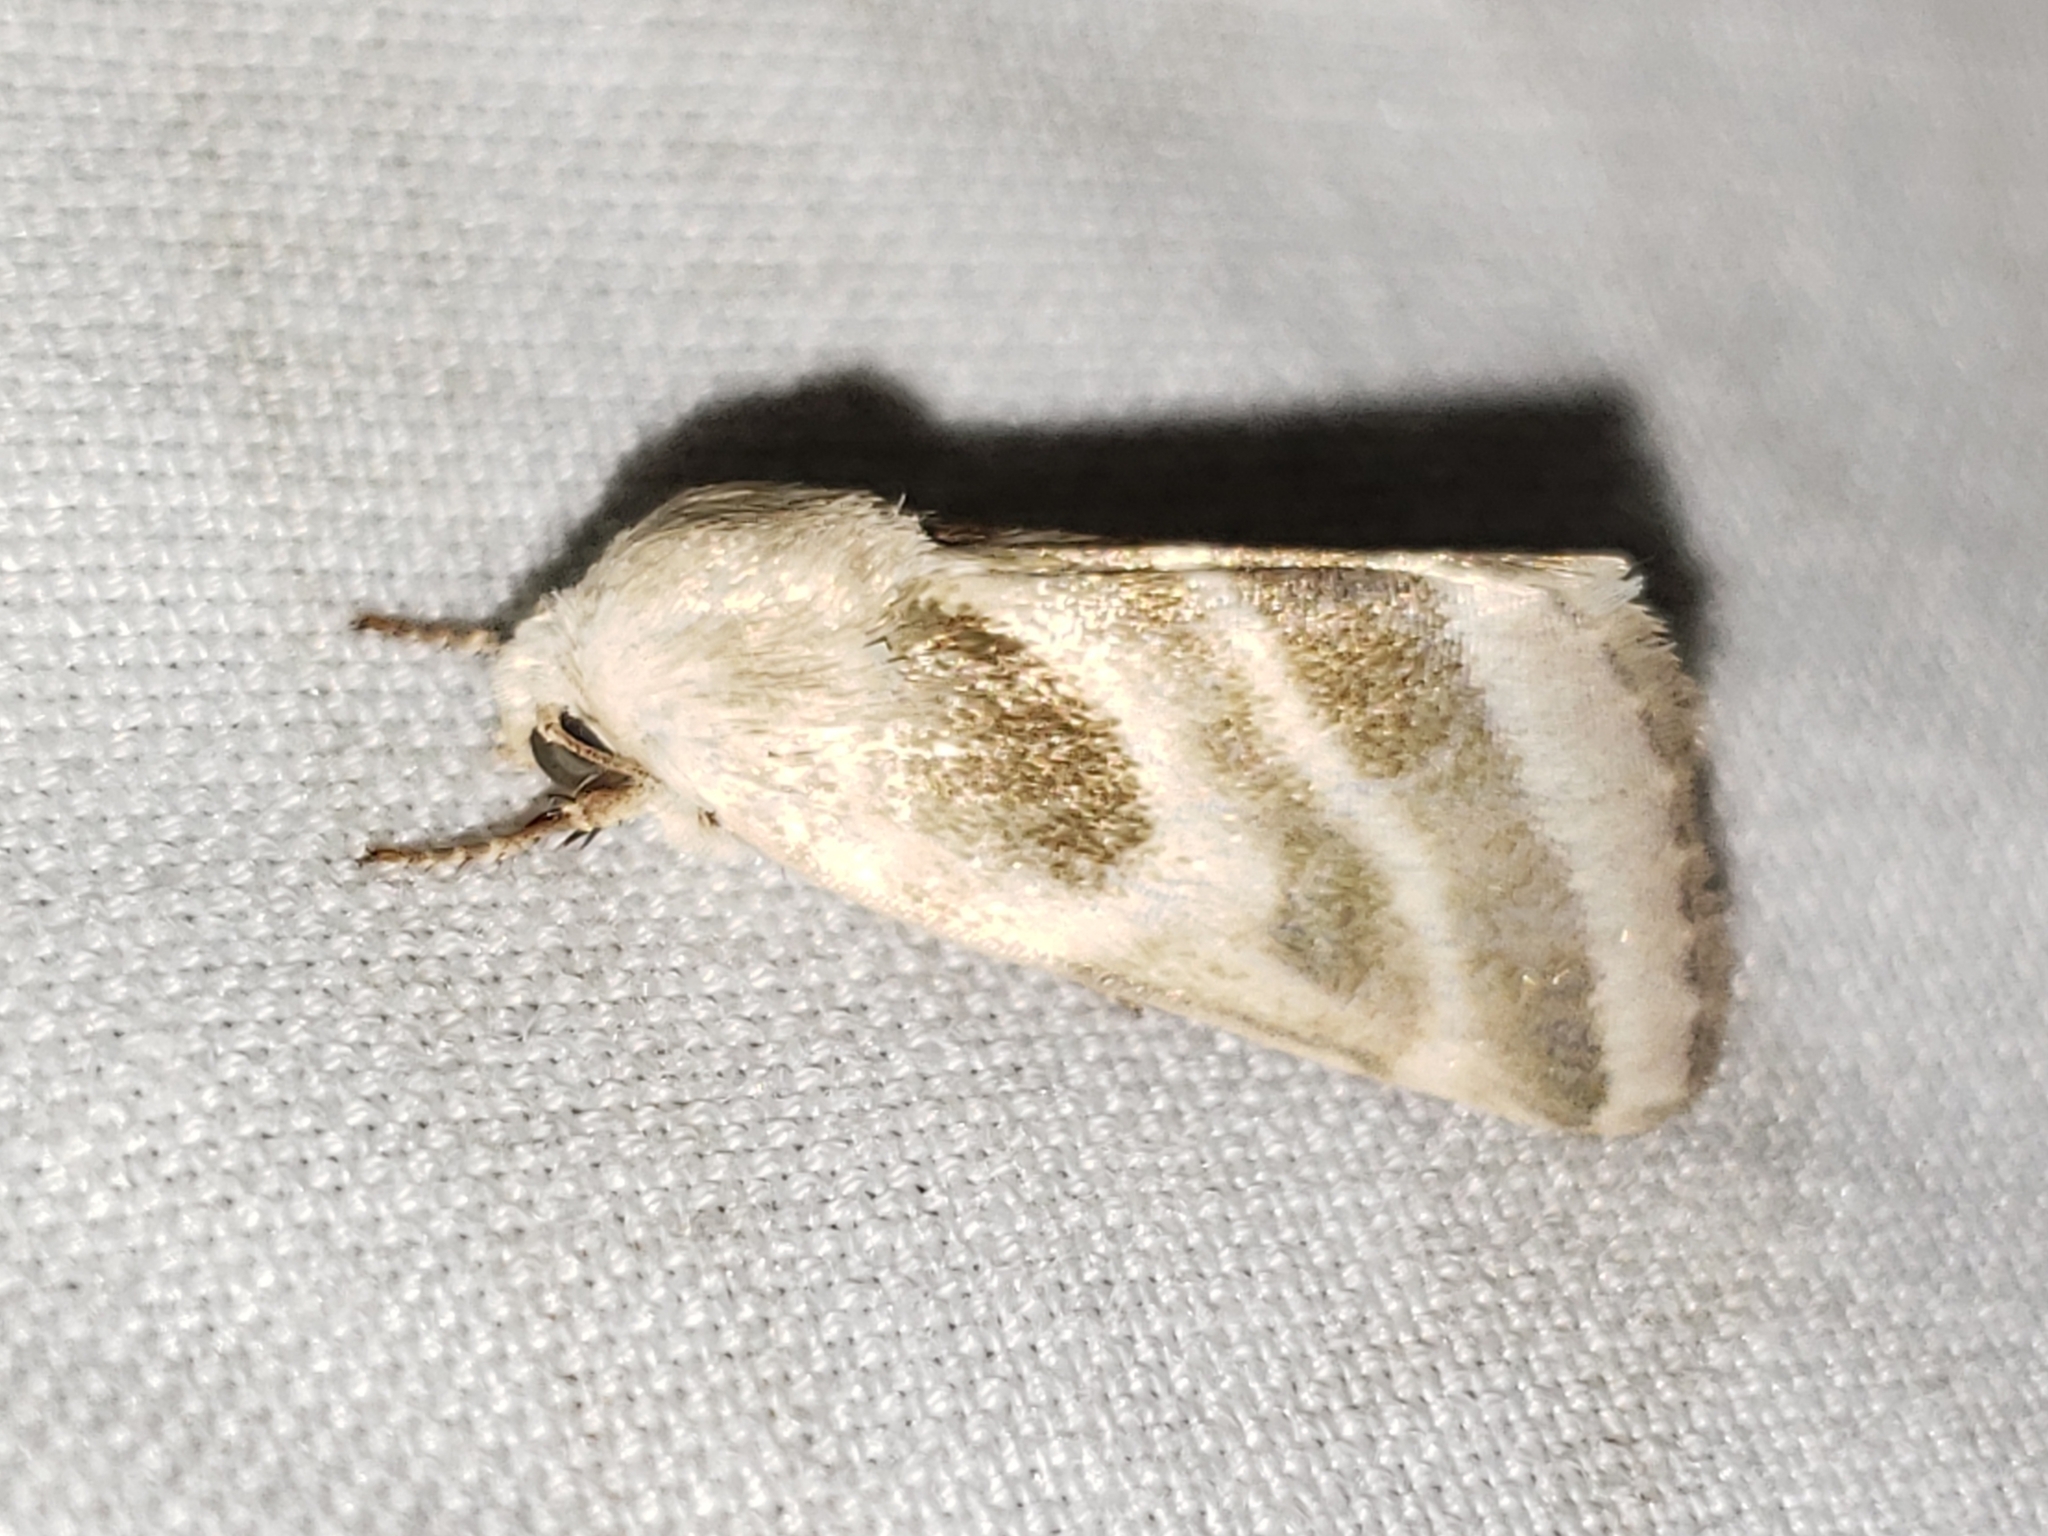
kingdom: Animalia
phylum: Arthropoda
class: Insecta
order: Lepidoptera
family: Noctuidae
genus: Schinia
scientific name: Schinia trifascia
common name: Three-lined flower moth
